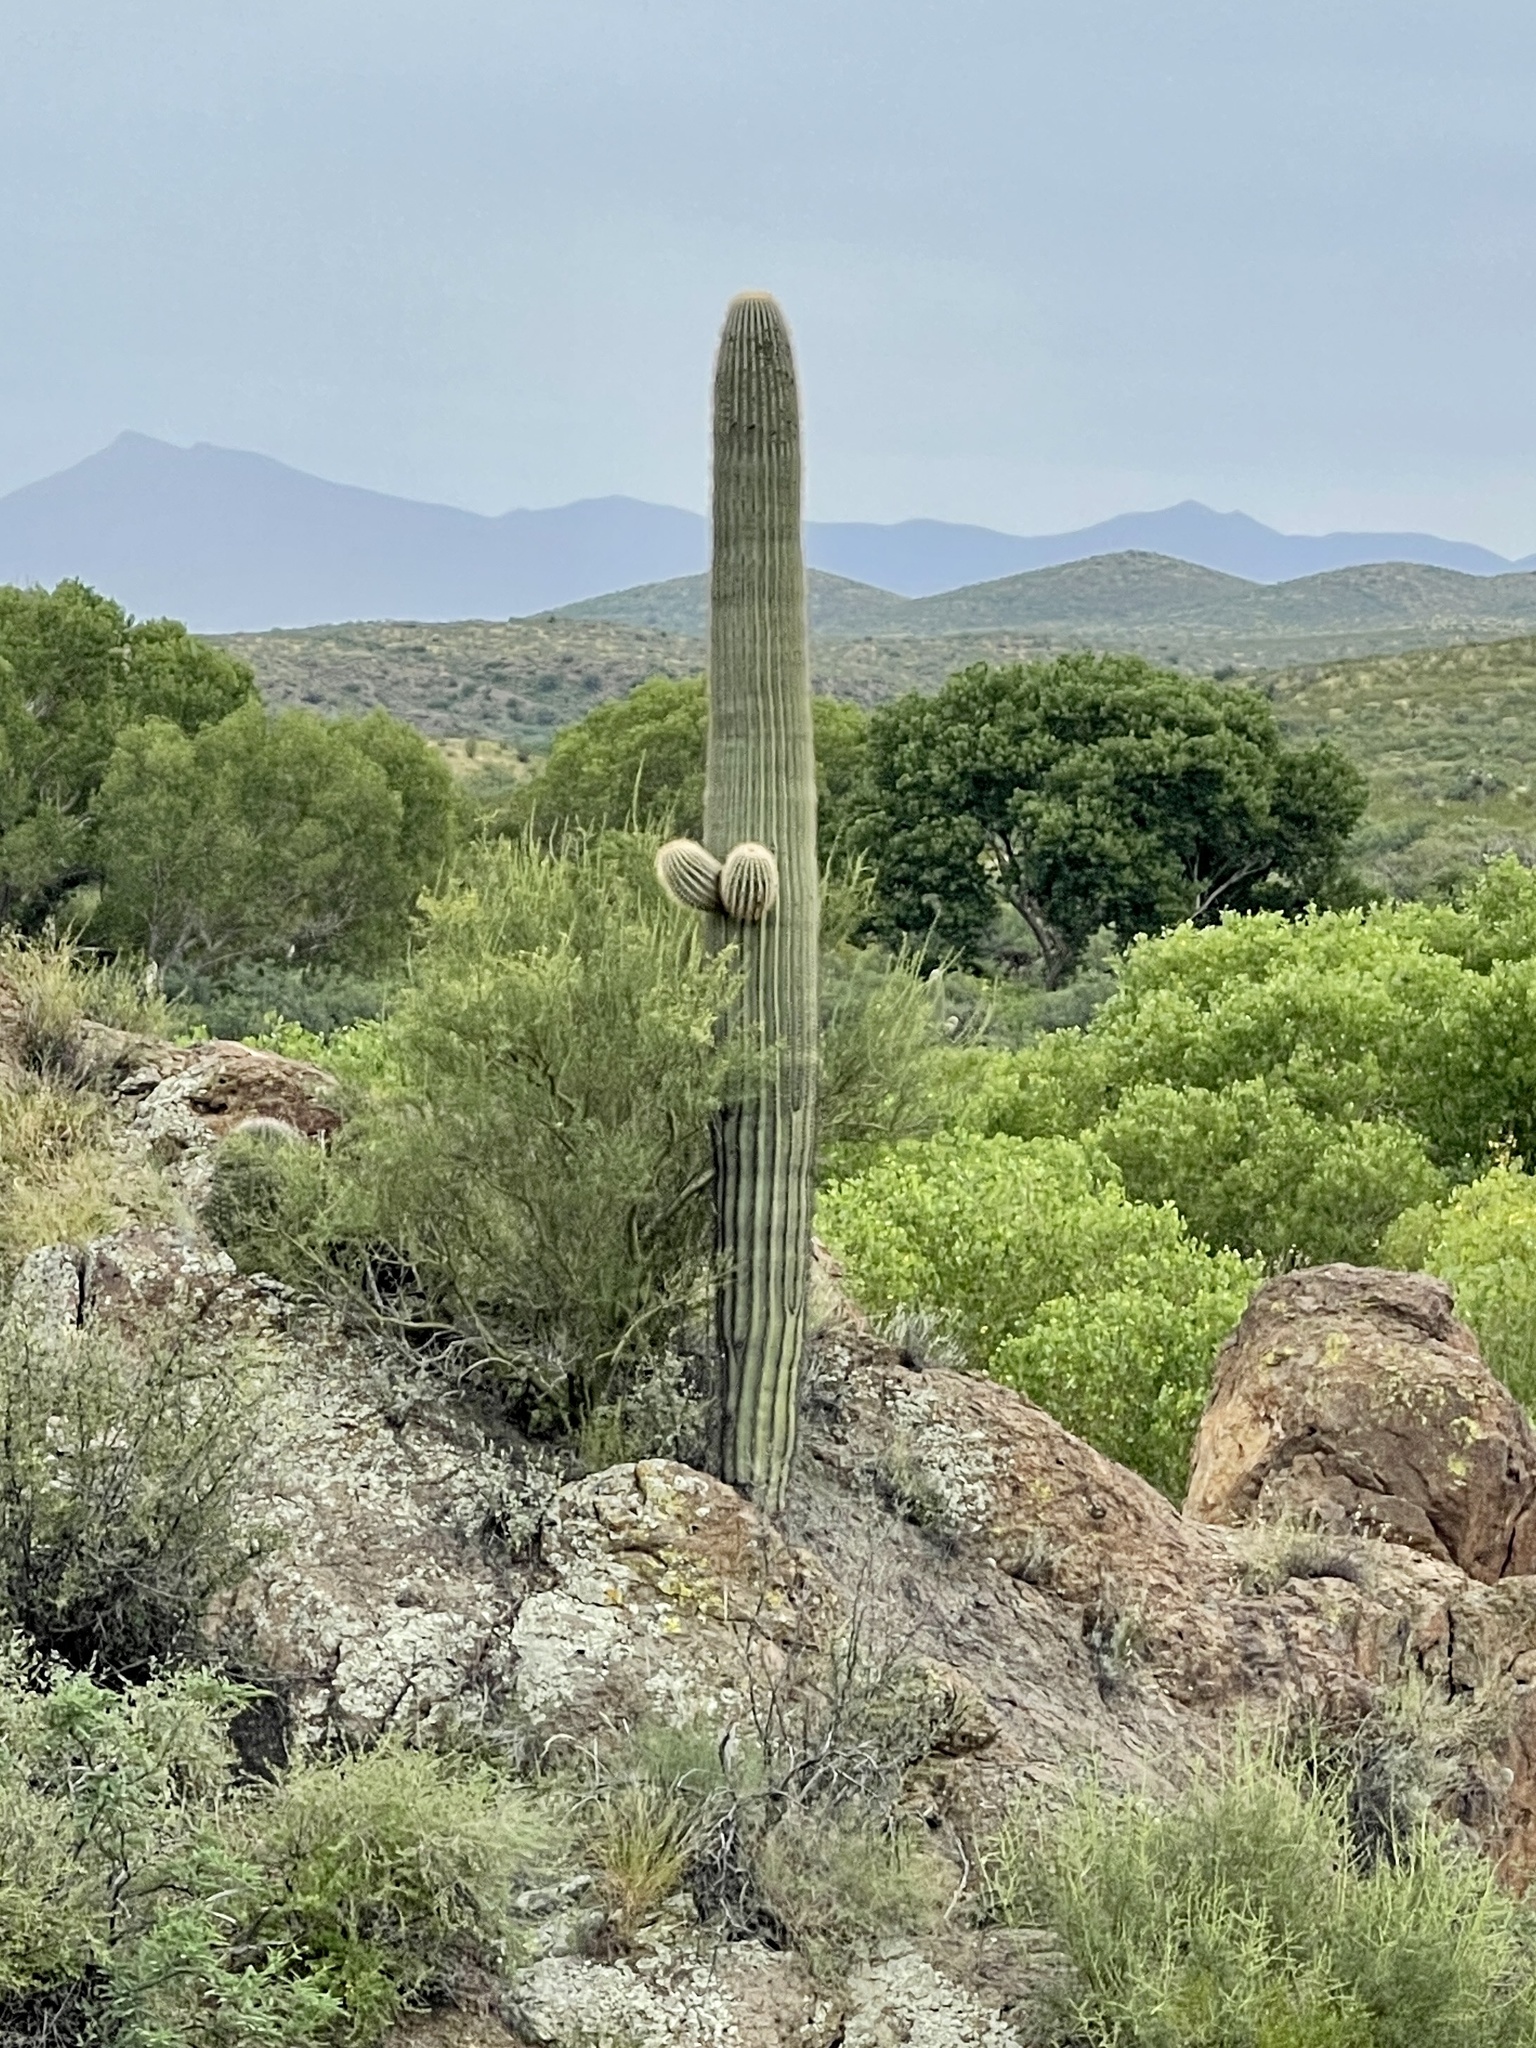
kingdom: Plantae
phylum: Tracheophyta
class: Magnoliopsida
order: Caryophyllales
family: Cactaceae
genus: Carnegiea
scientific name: Carnegiea gigantea
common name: Saguaro
